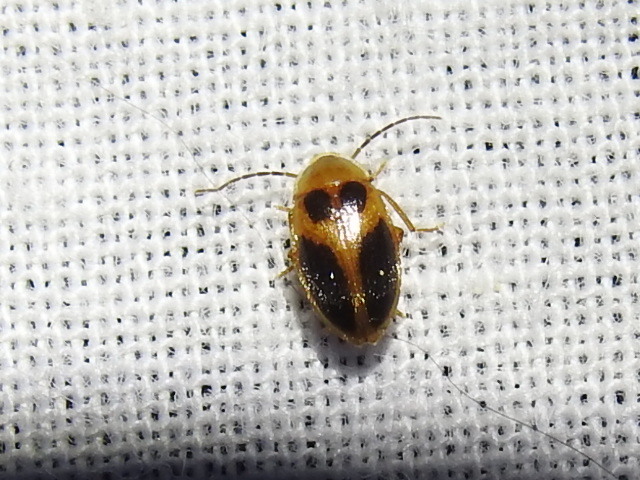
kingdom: Animalia
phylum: Arthropoda
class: Insecta
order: Coleoptera
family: Scirtidae
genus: Sacodes
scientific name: Sacodes pulchella
